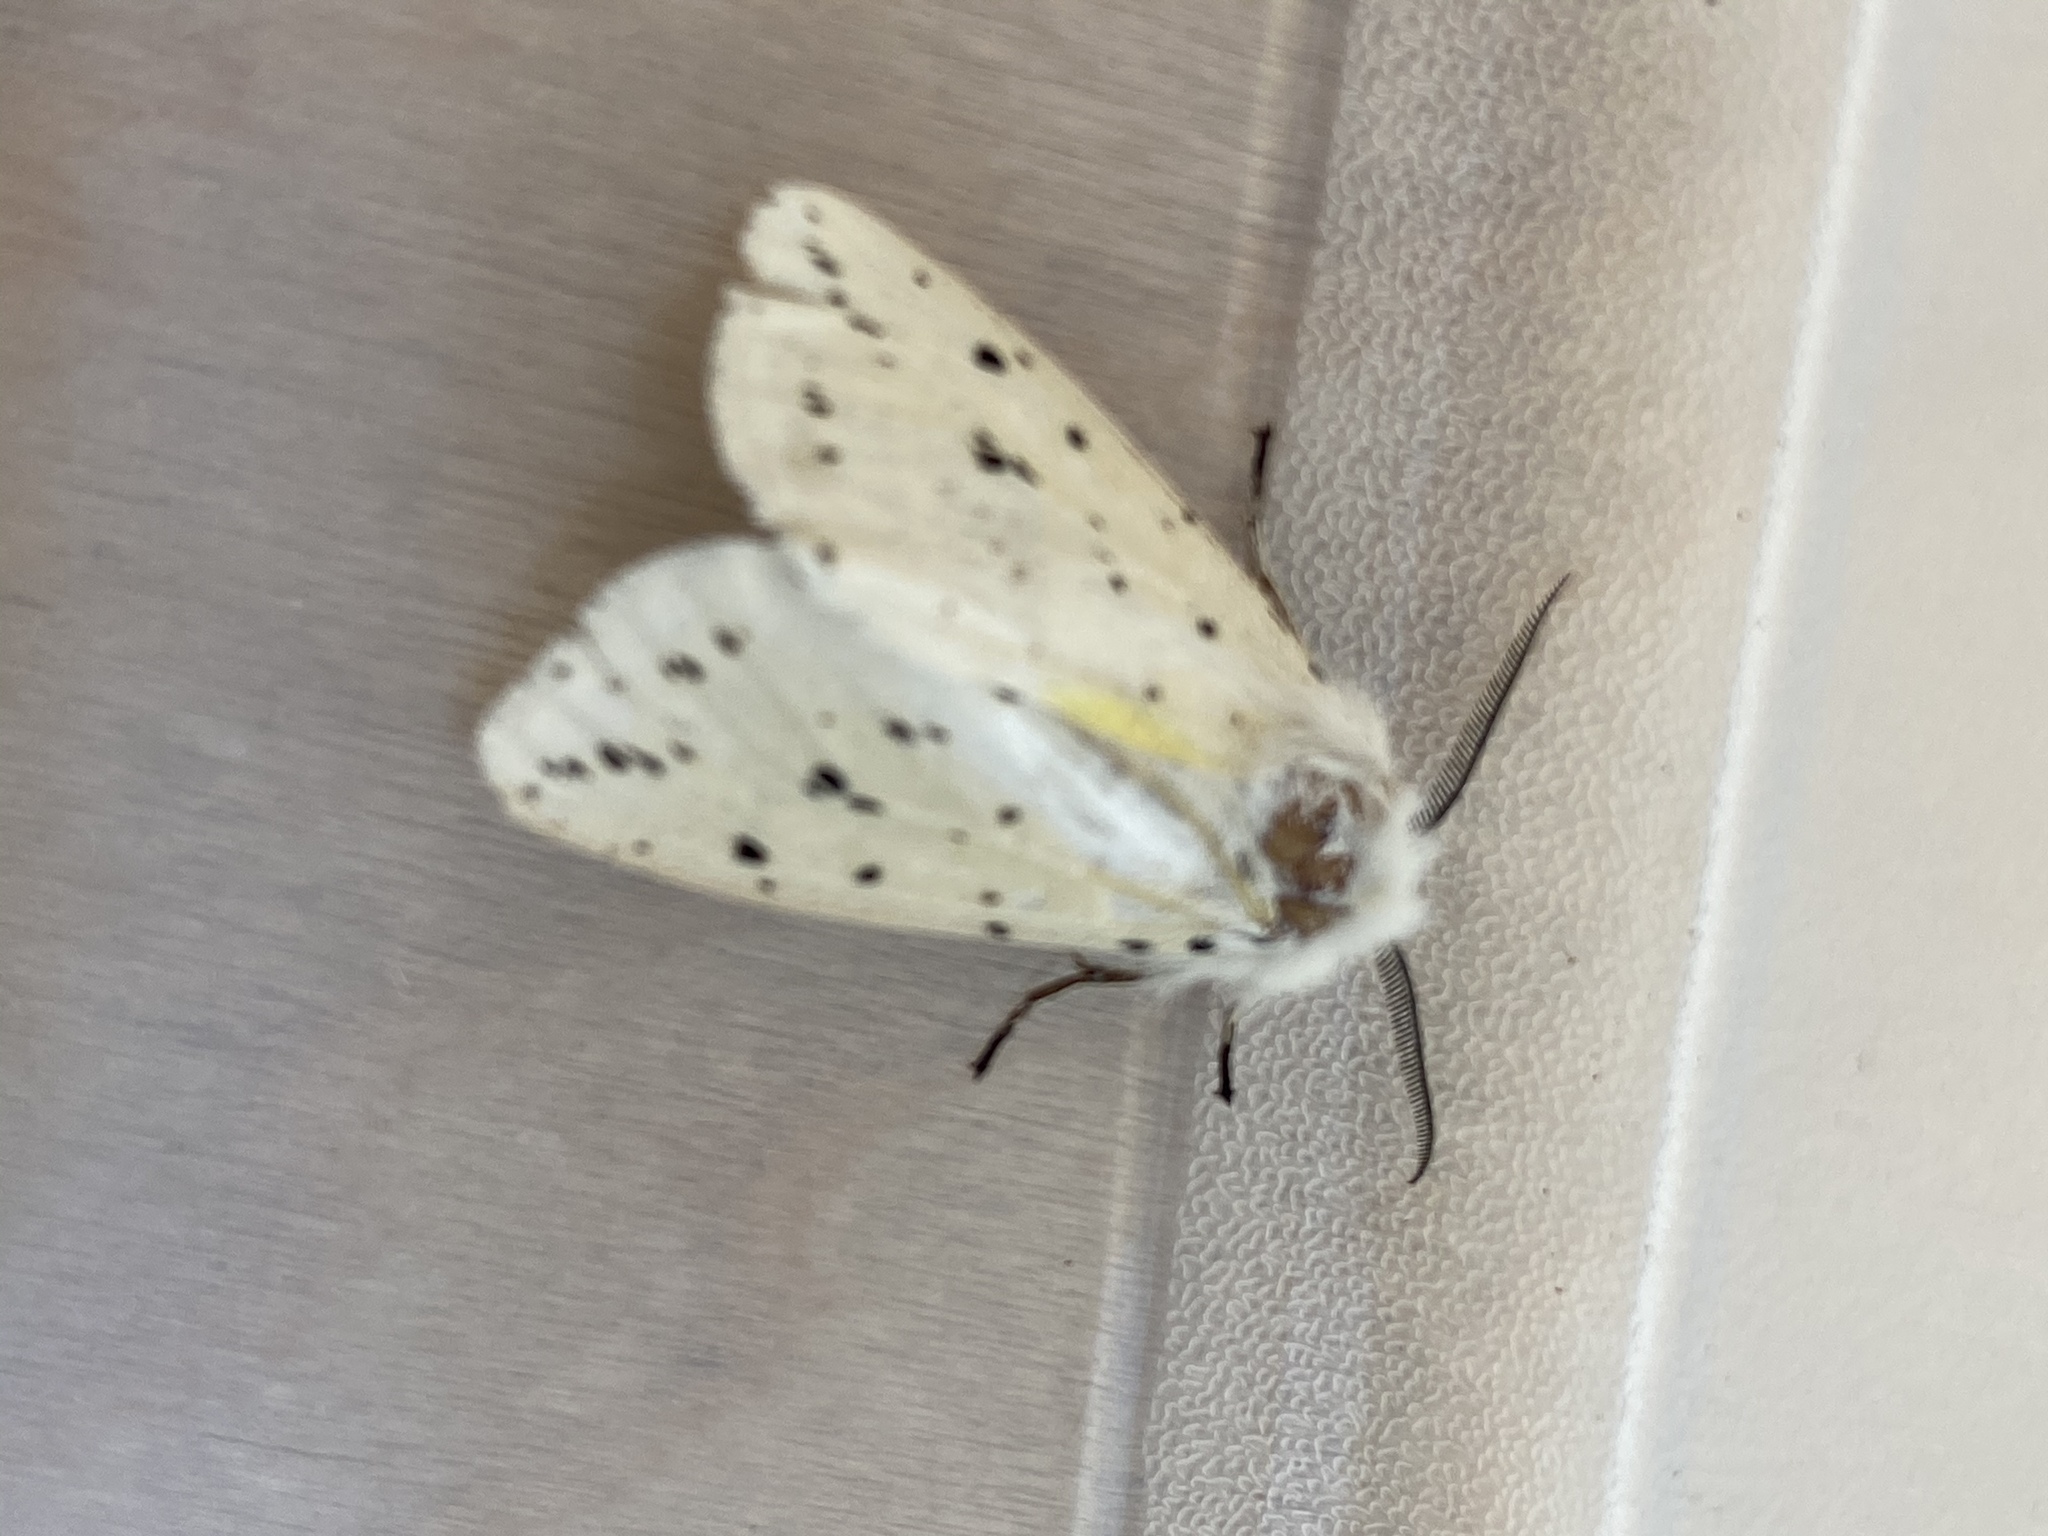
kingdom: Animalia
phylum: Arthropoda
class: Insecta
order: Lepidoptera
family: Erebidae
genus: Spilosoma
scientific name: Spilosoma lubricipeda
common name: White ermine
